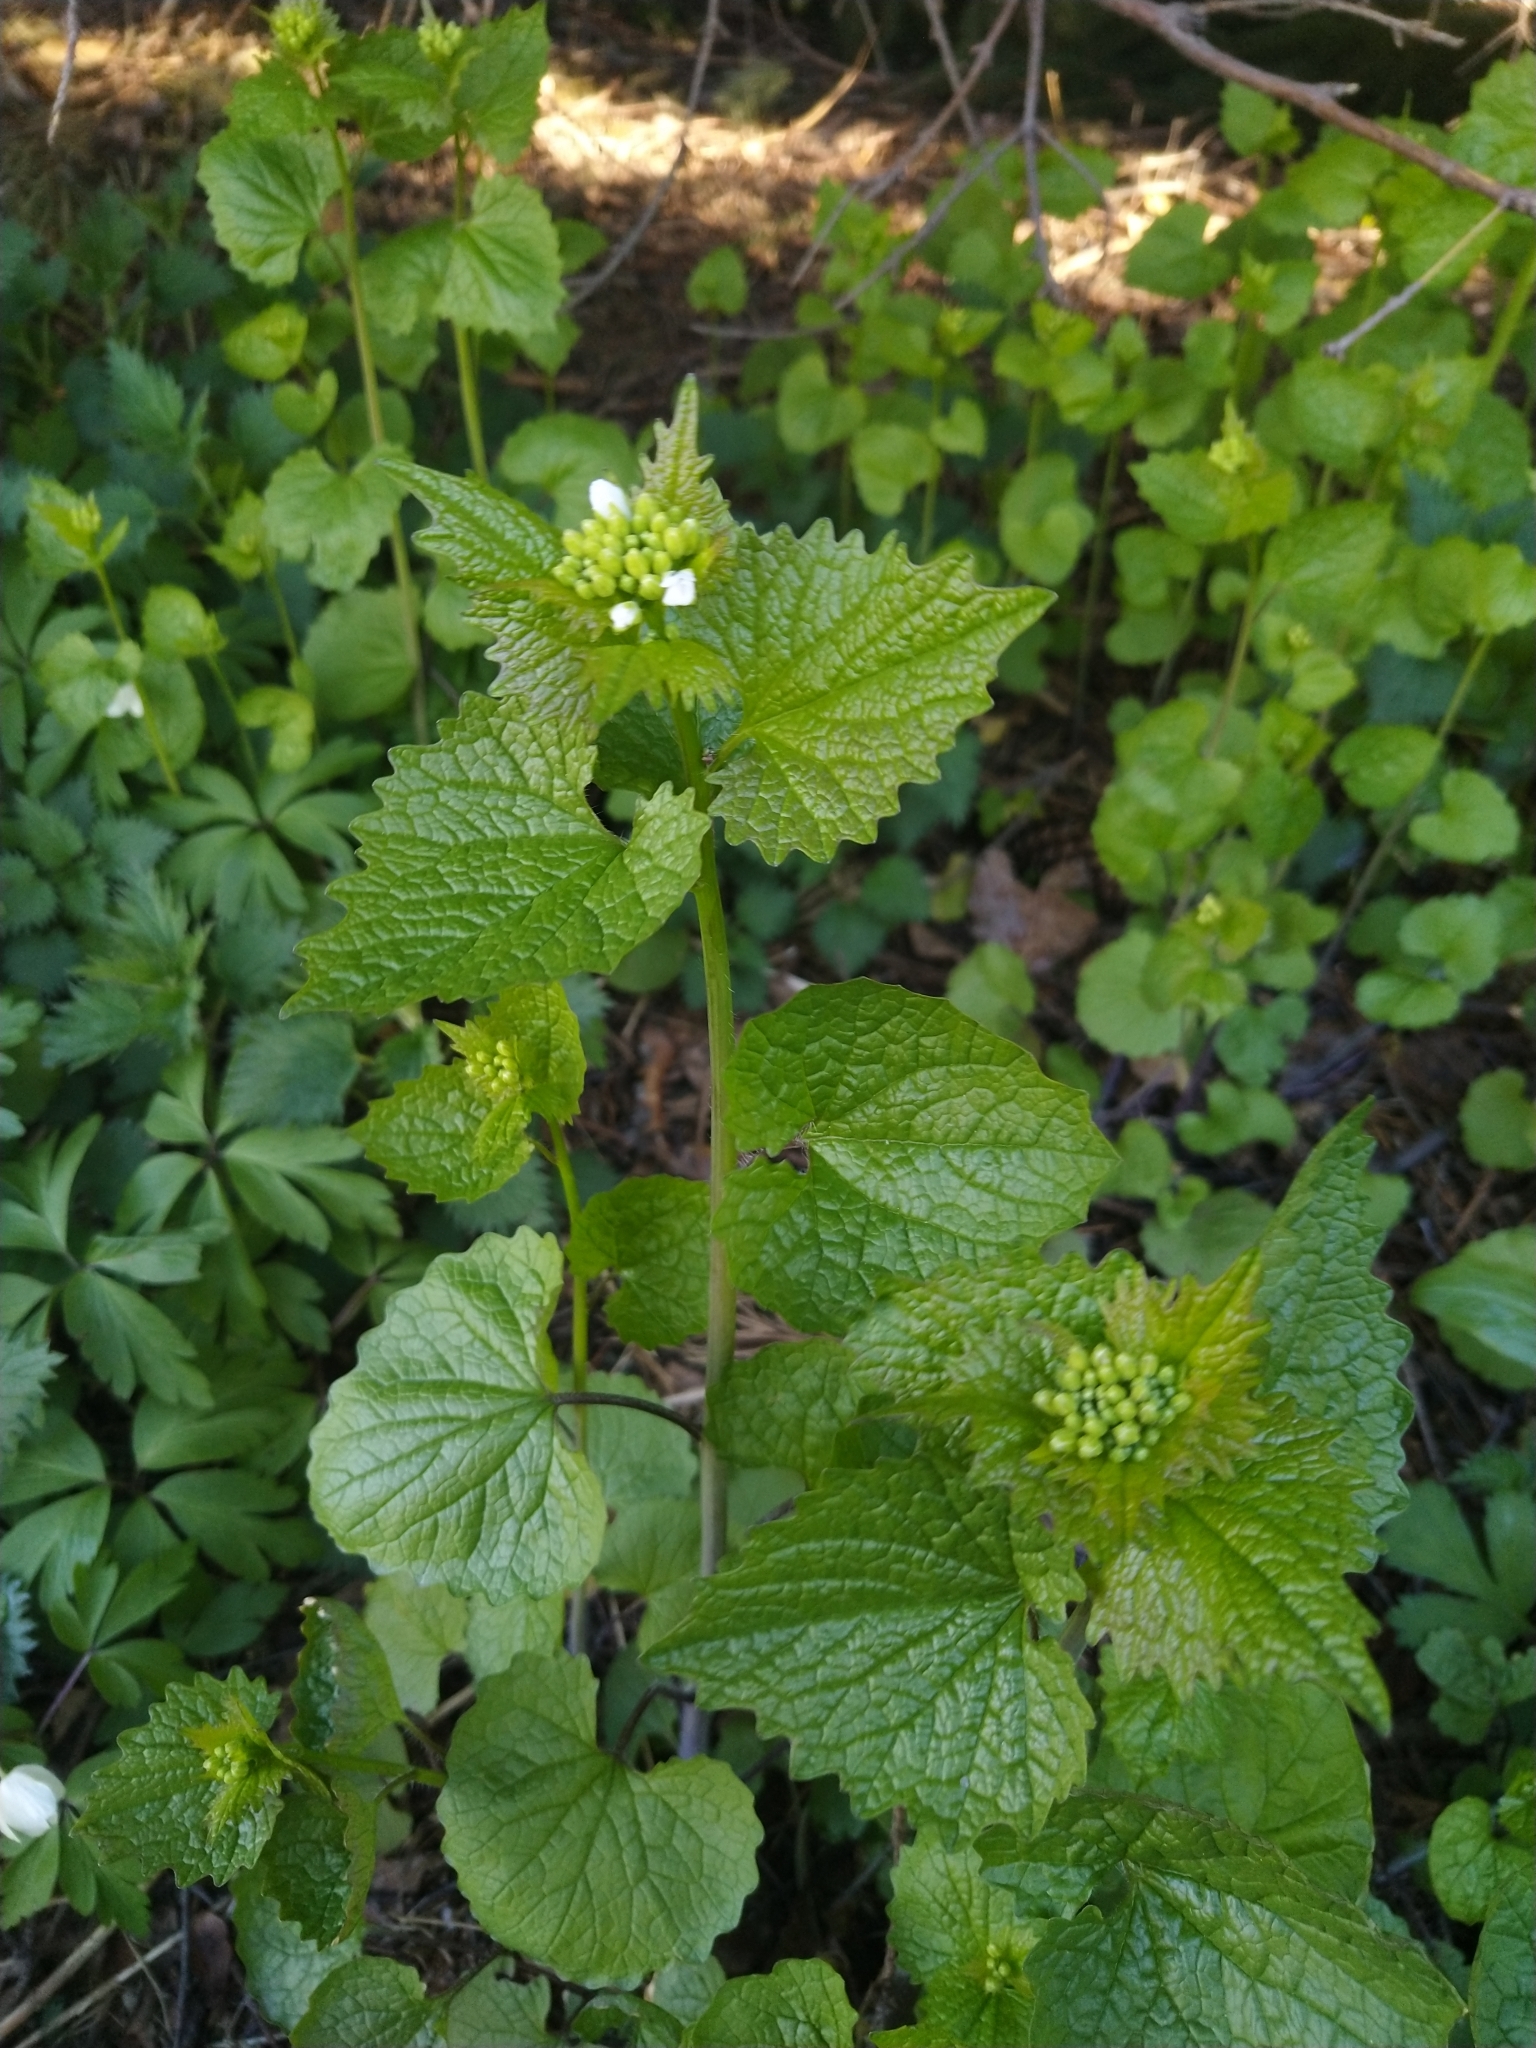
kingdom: Plantae
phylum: Tracheophyta
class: Magnoliopsida
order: Brassicales
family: Brassicaceae
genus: Alliaria
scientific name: Alliaria petiolata
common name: Garlic mustard
